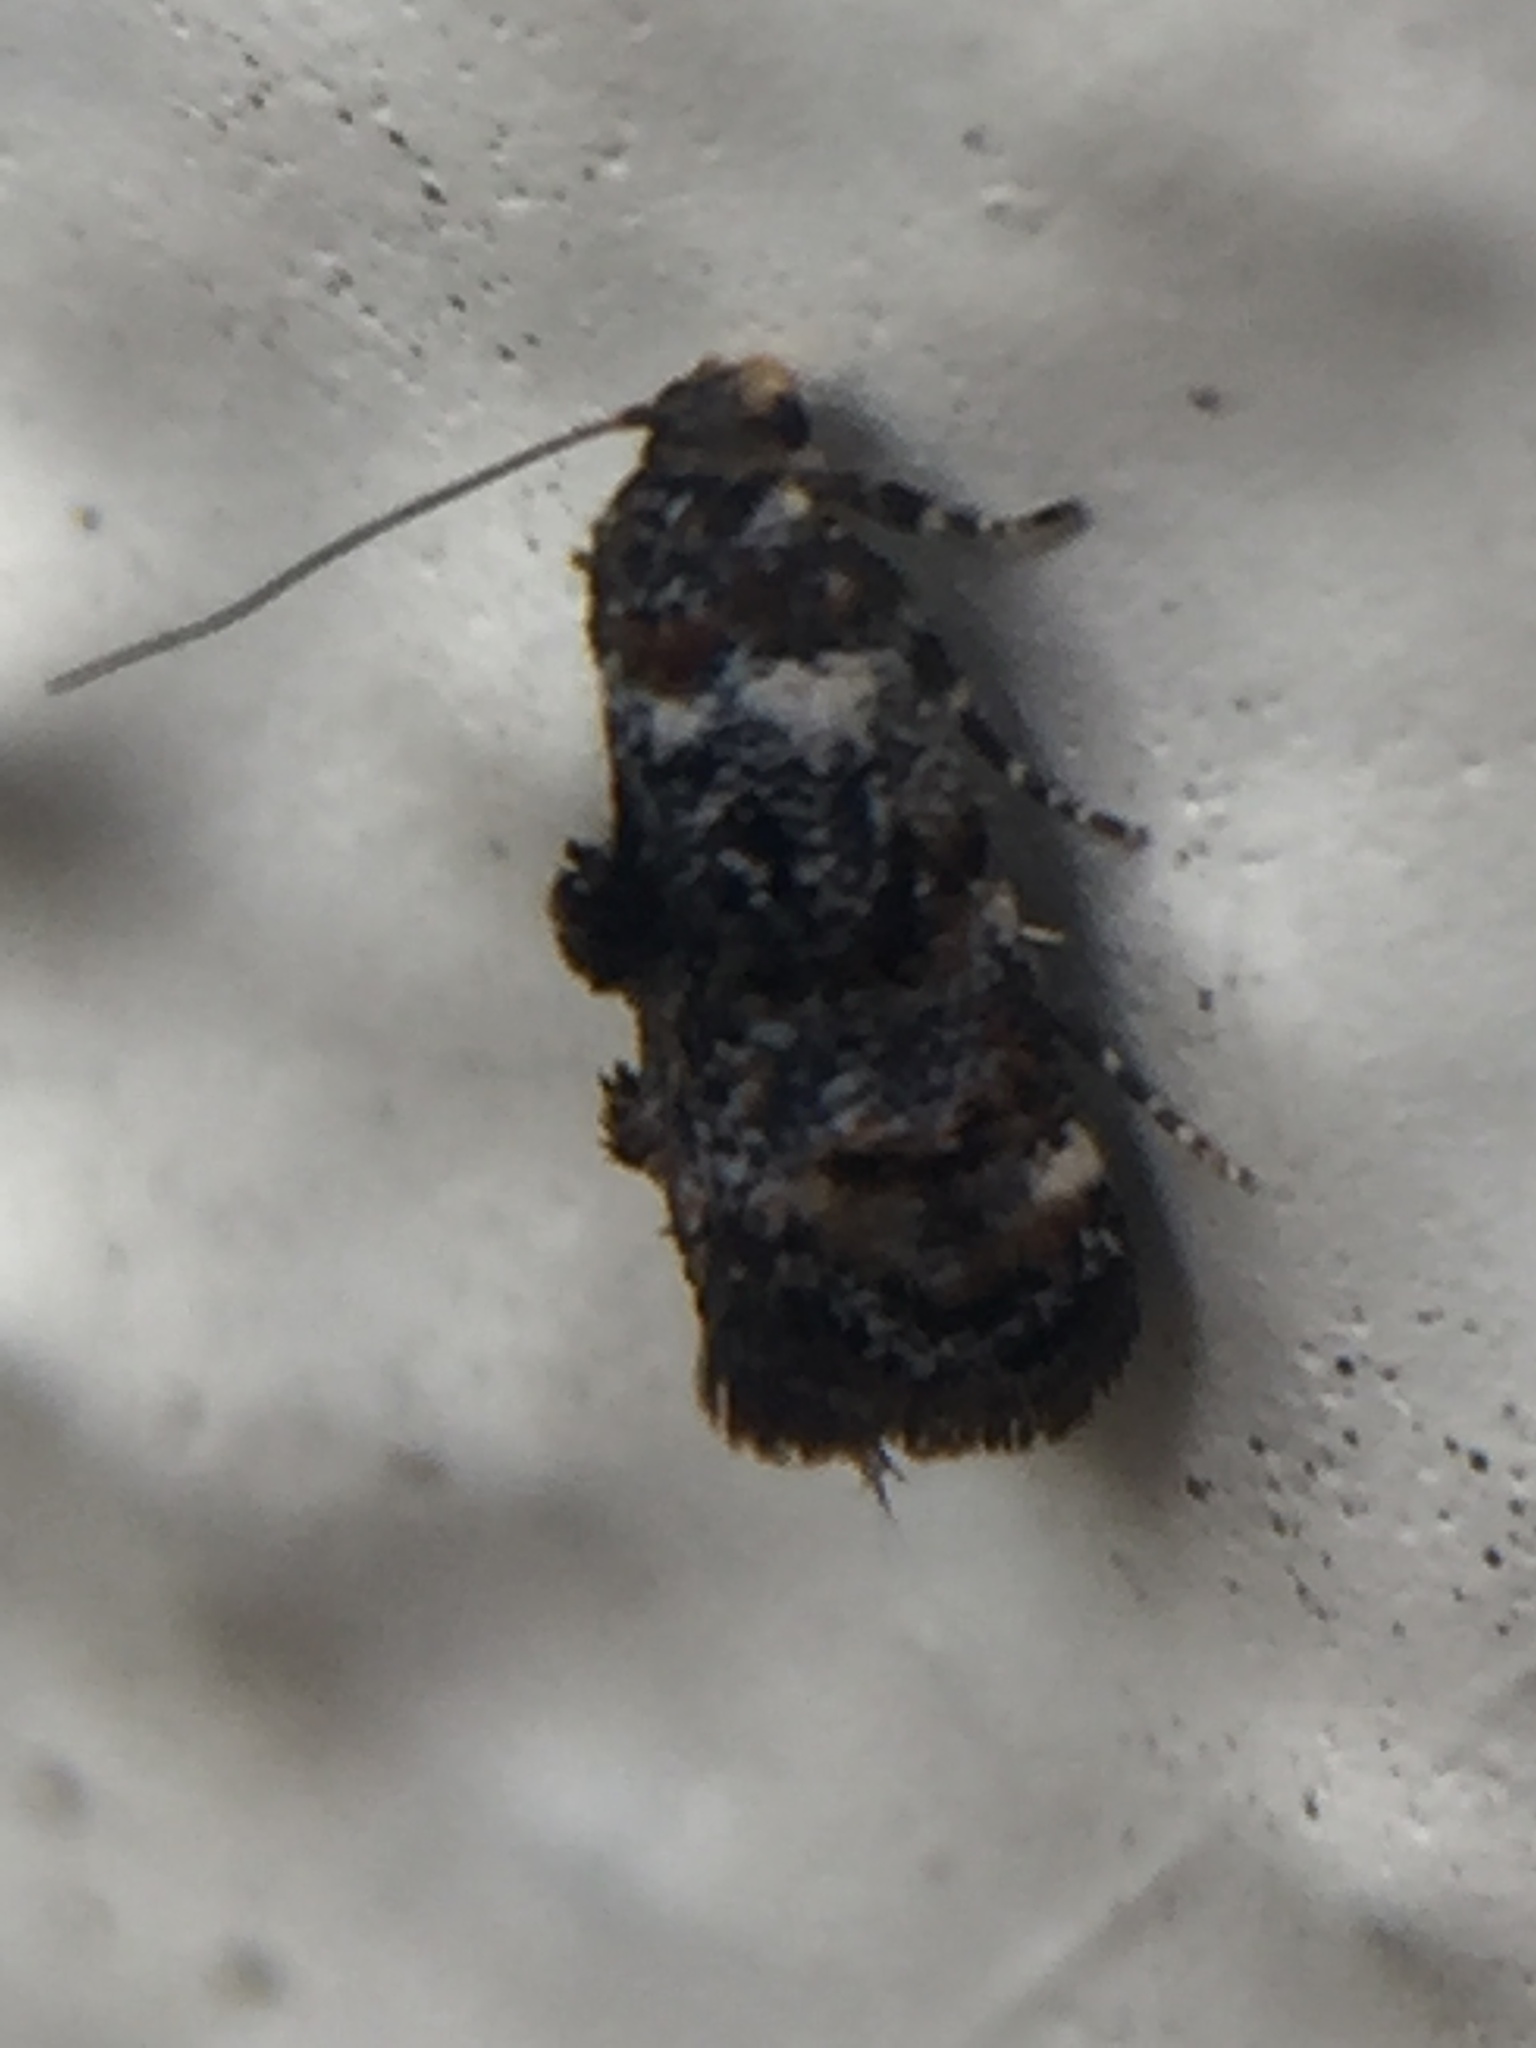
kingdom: Animalia
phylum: Arthropoda
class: Insecta
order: Lepidoptera
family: Oecophoridae
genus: Corocosma
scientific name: Corocosma memorabilis
